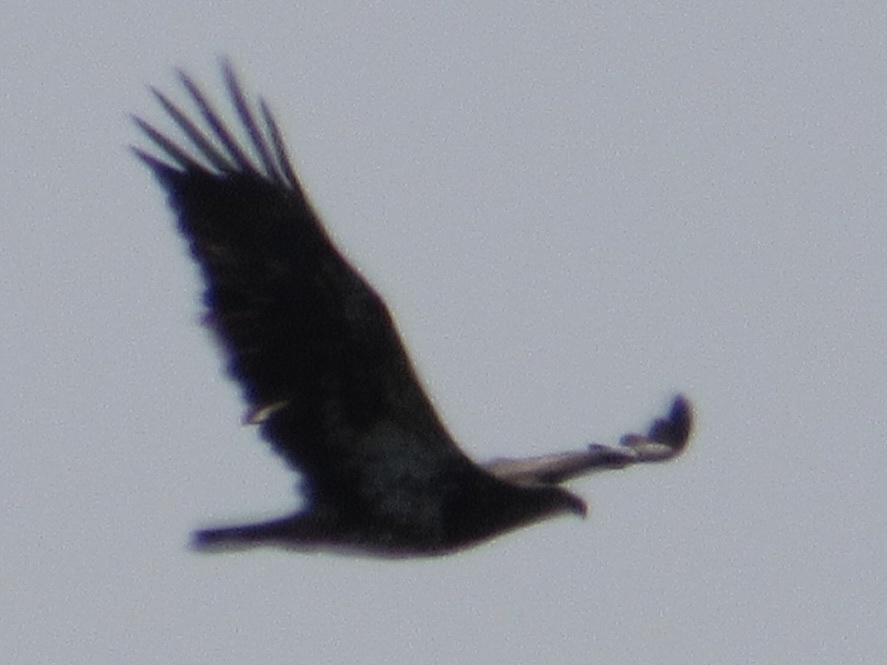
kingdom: Animalia
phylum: Chordata
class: Aves
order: Accipitriformes
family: Accipitridae
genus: Haliaeetus
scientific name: Haliaeetus leucocephalus
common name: Bald eagle
